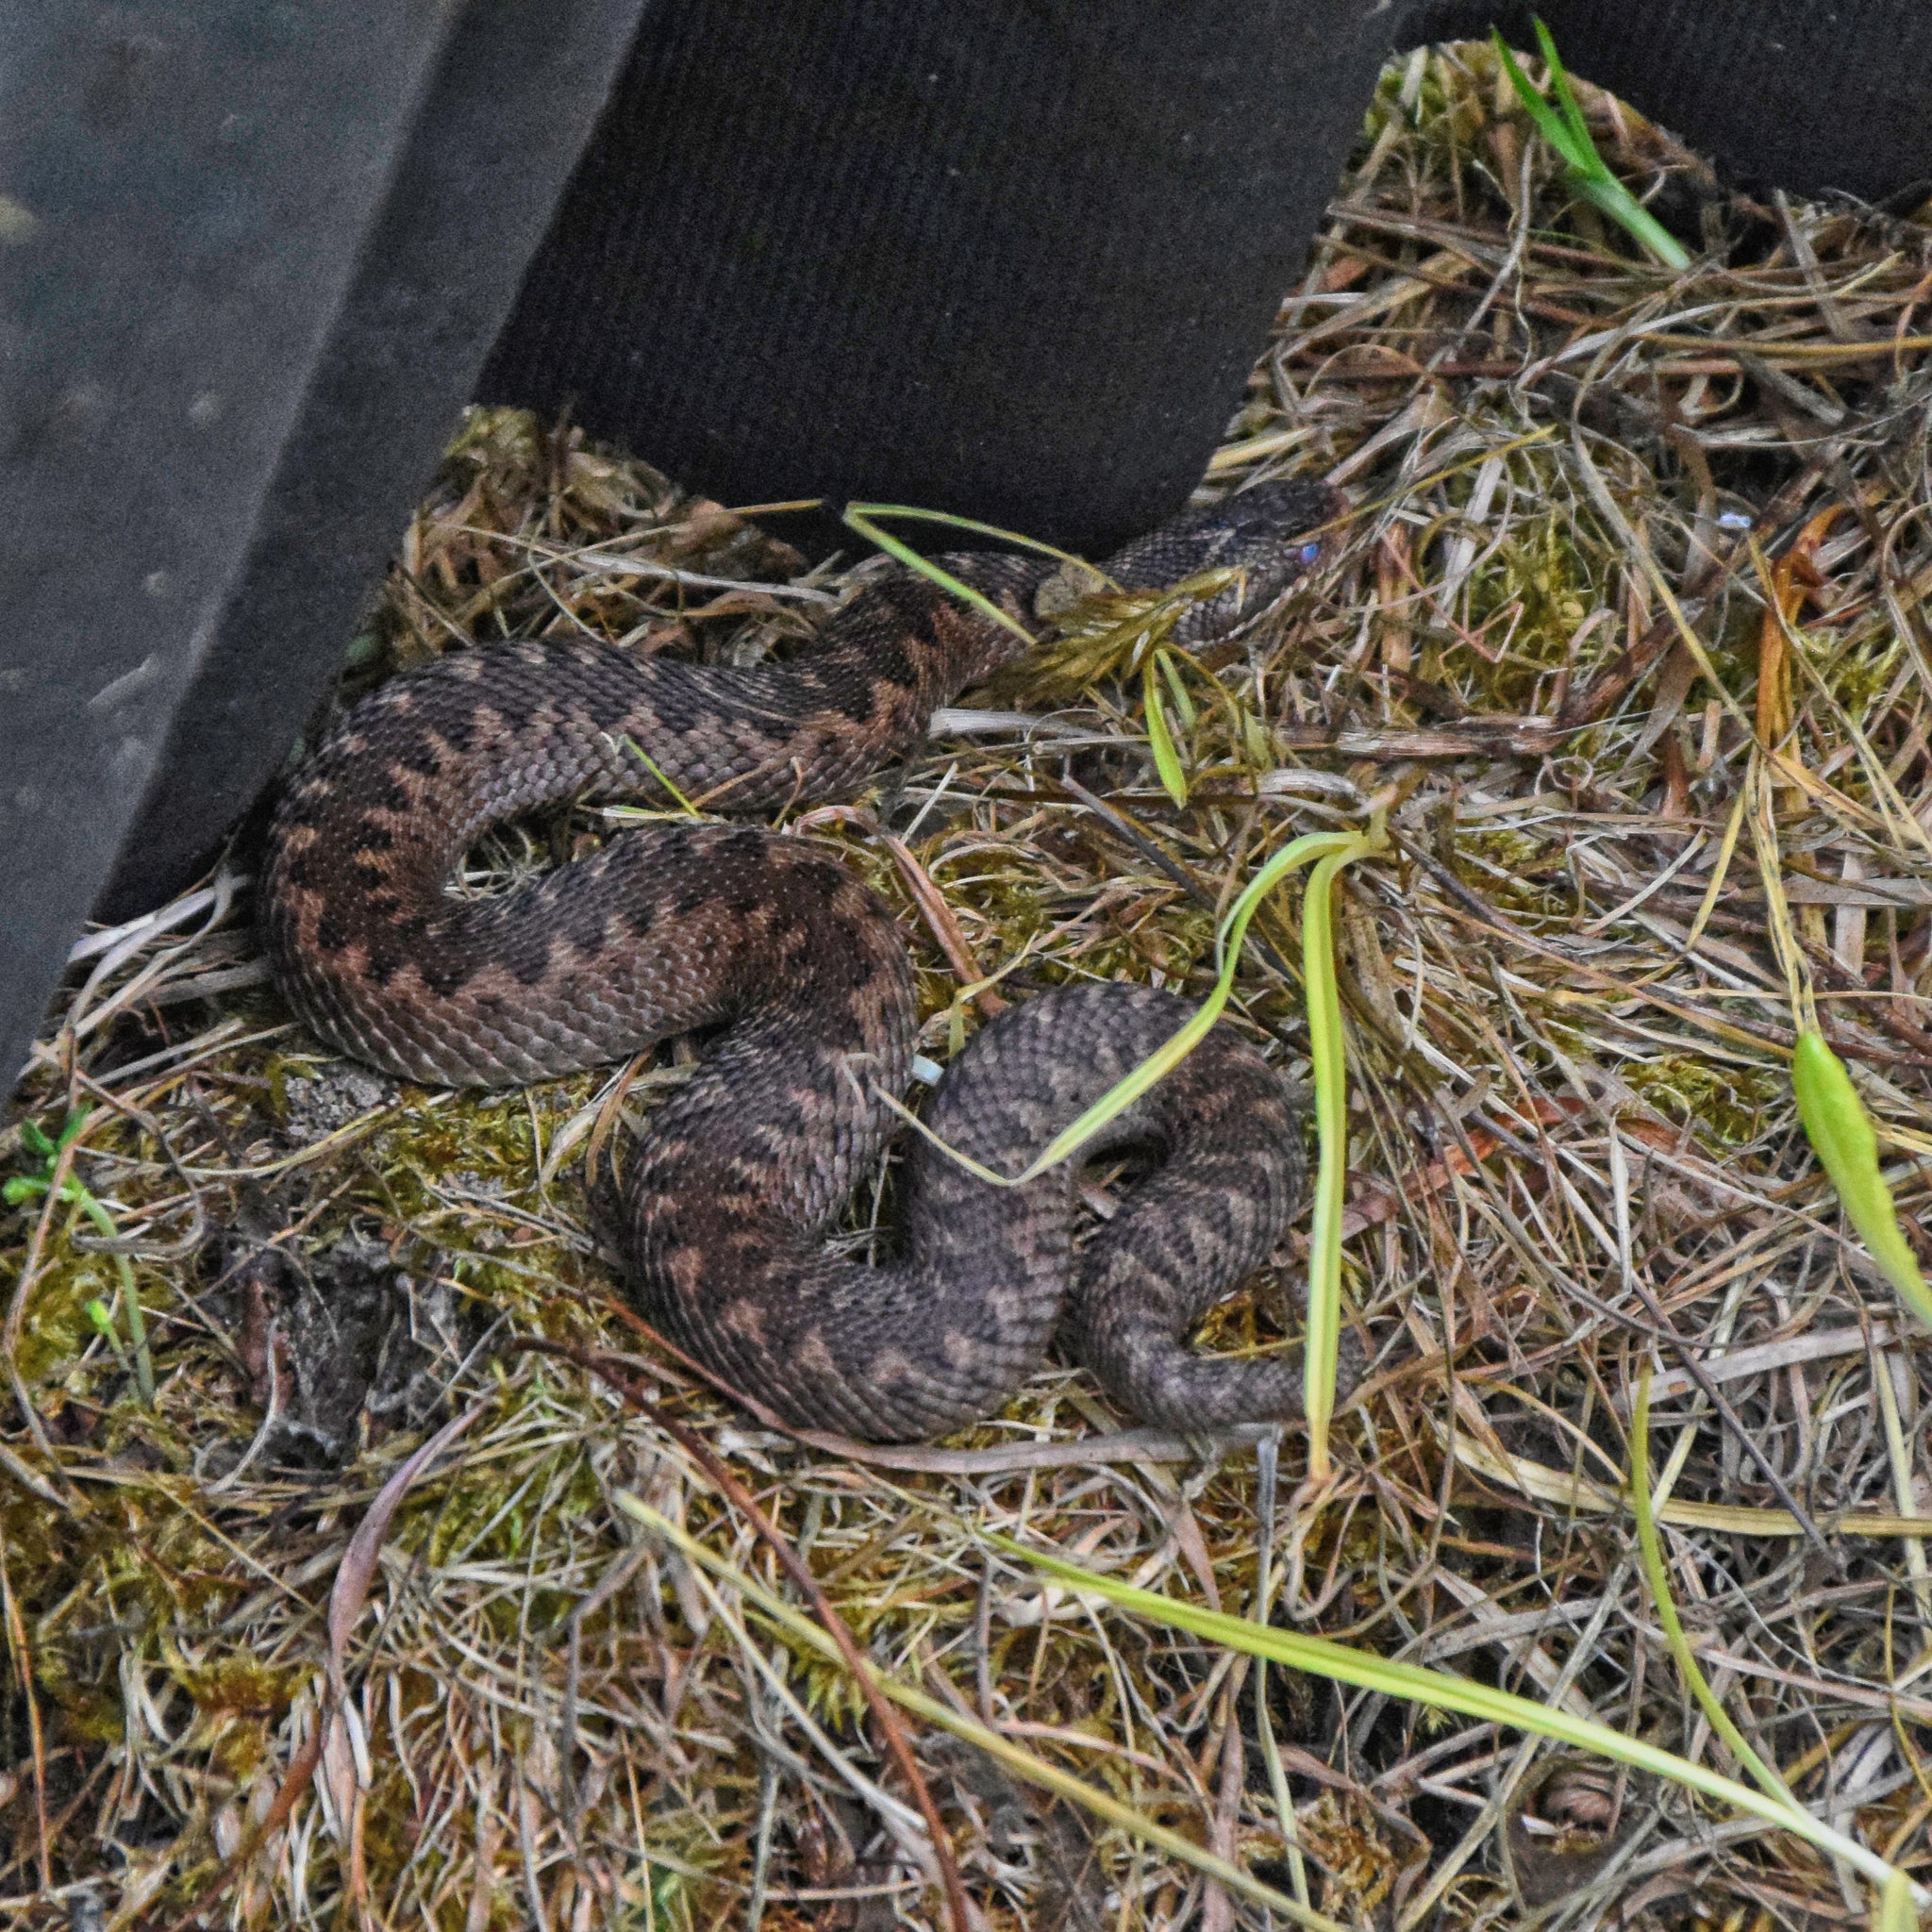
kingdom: Animalia
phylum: Chordata
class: Squamata
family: Viperidae
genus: Vipera
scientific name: Vipera berus
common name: Adder
